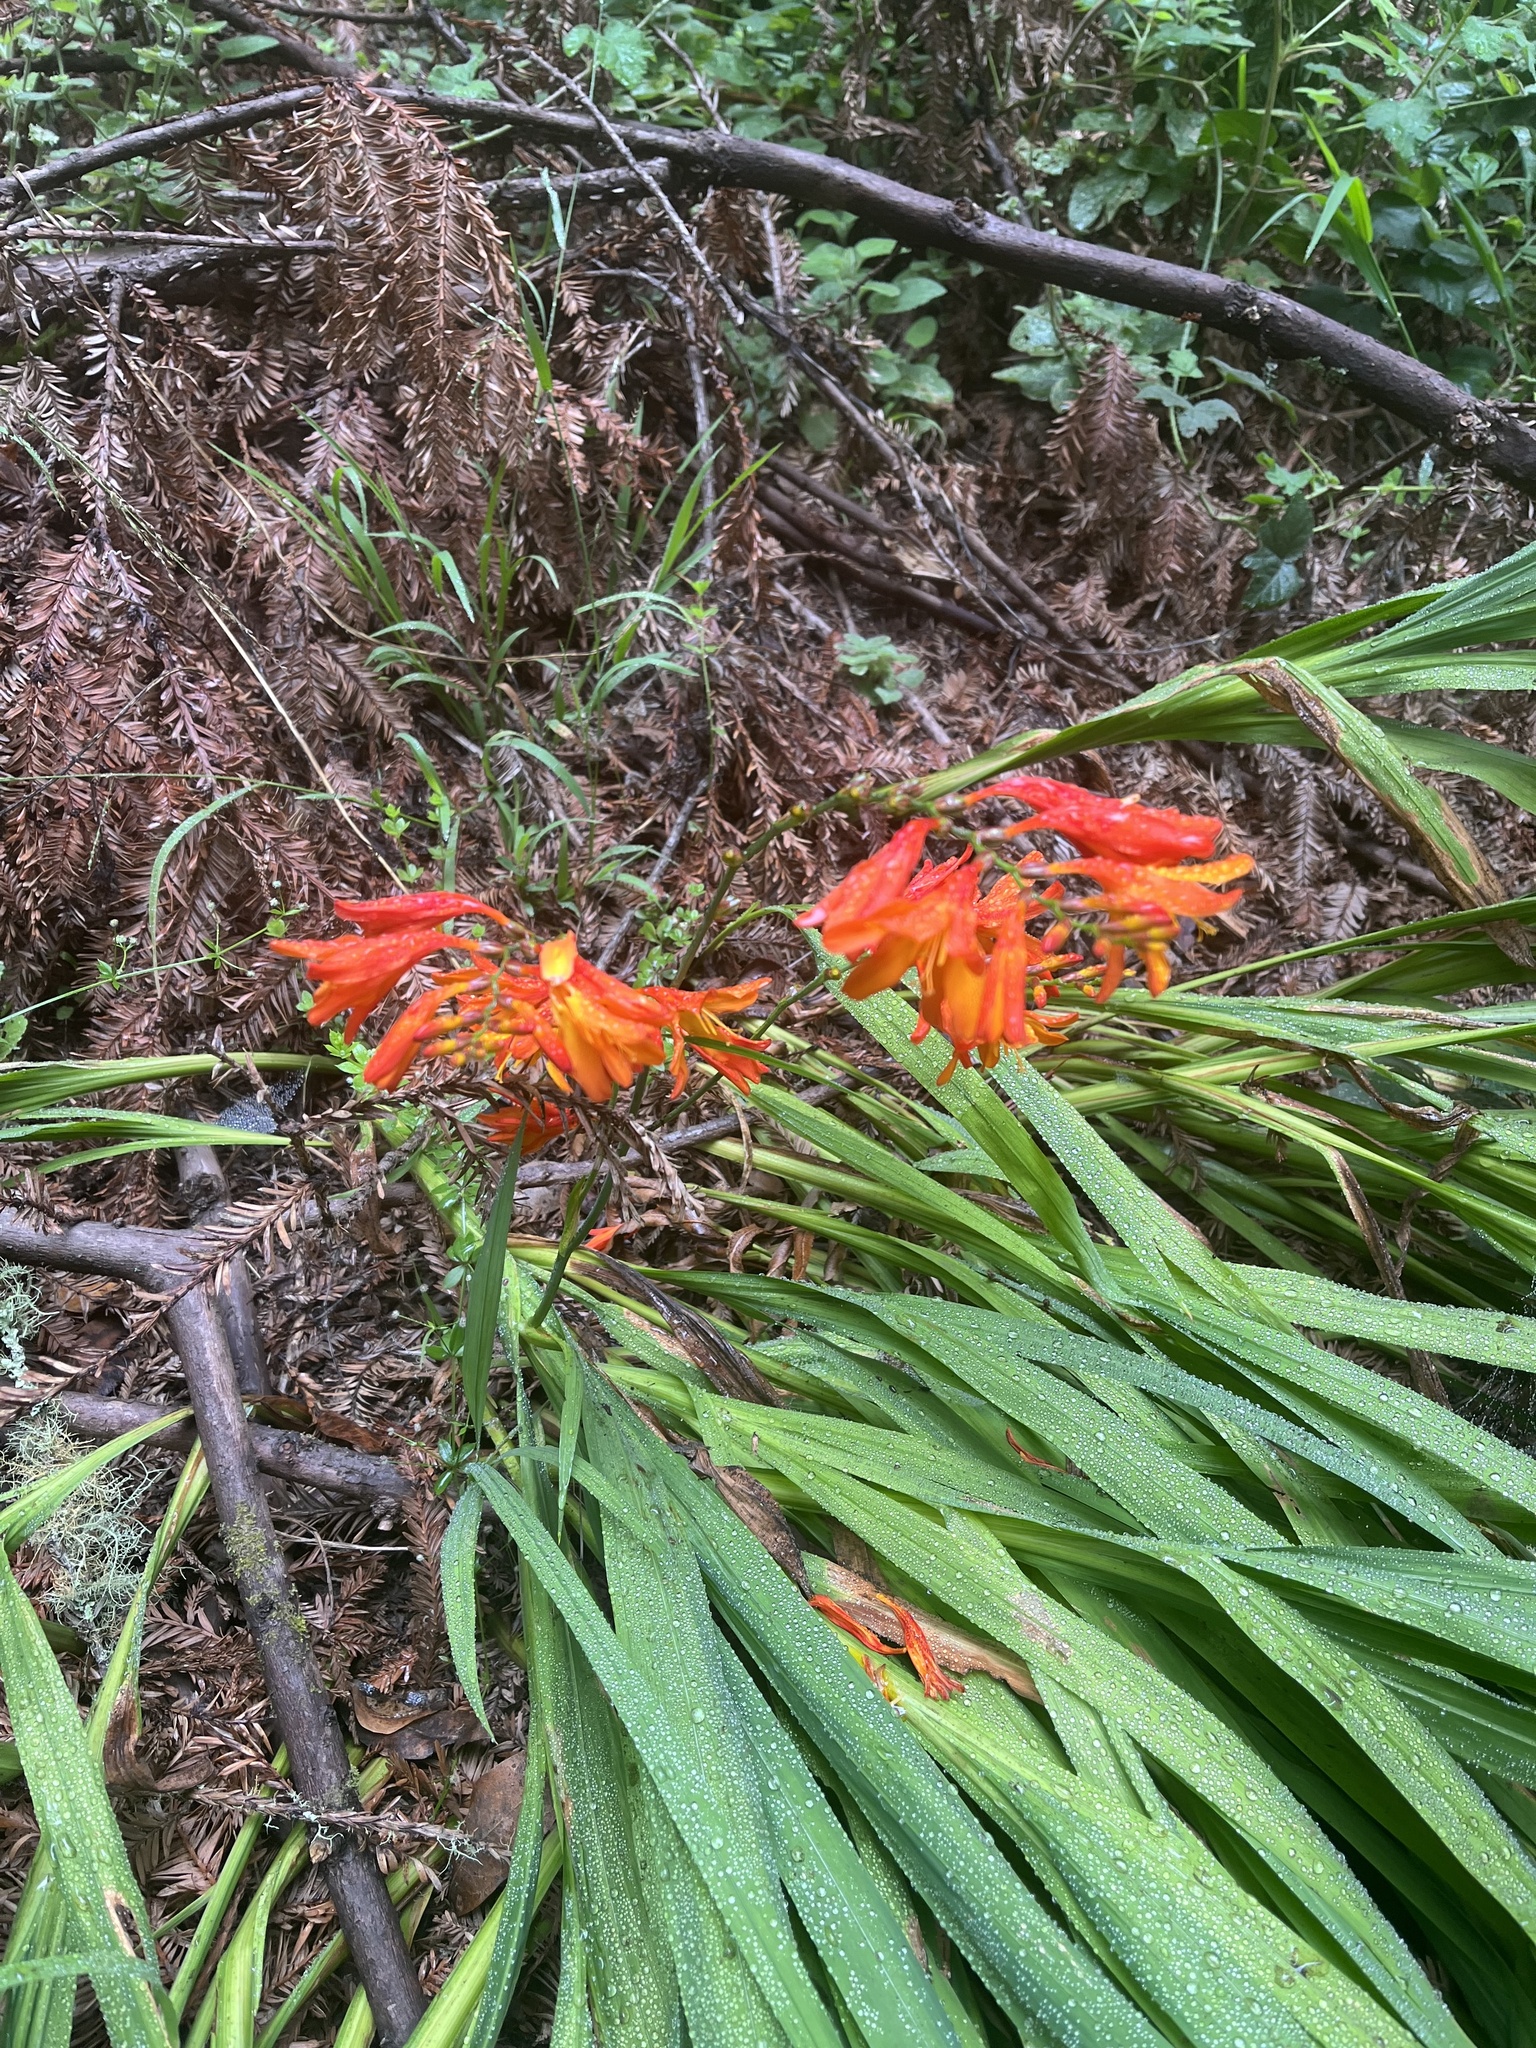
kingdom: Plantae
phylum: Tracheophyta
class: Liliopsida
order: Asparagales
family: Iridaceae
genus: Crocosmia
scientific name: Crocosmia crocosmiiflora
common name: Montbretia
